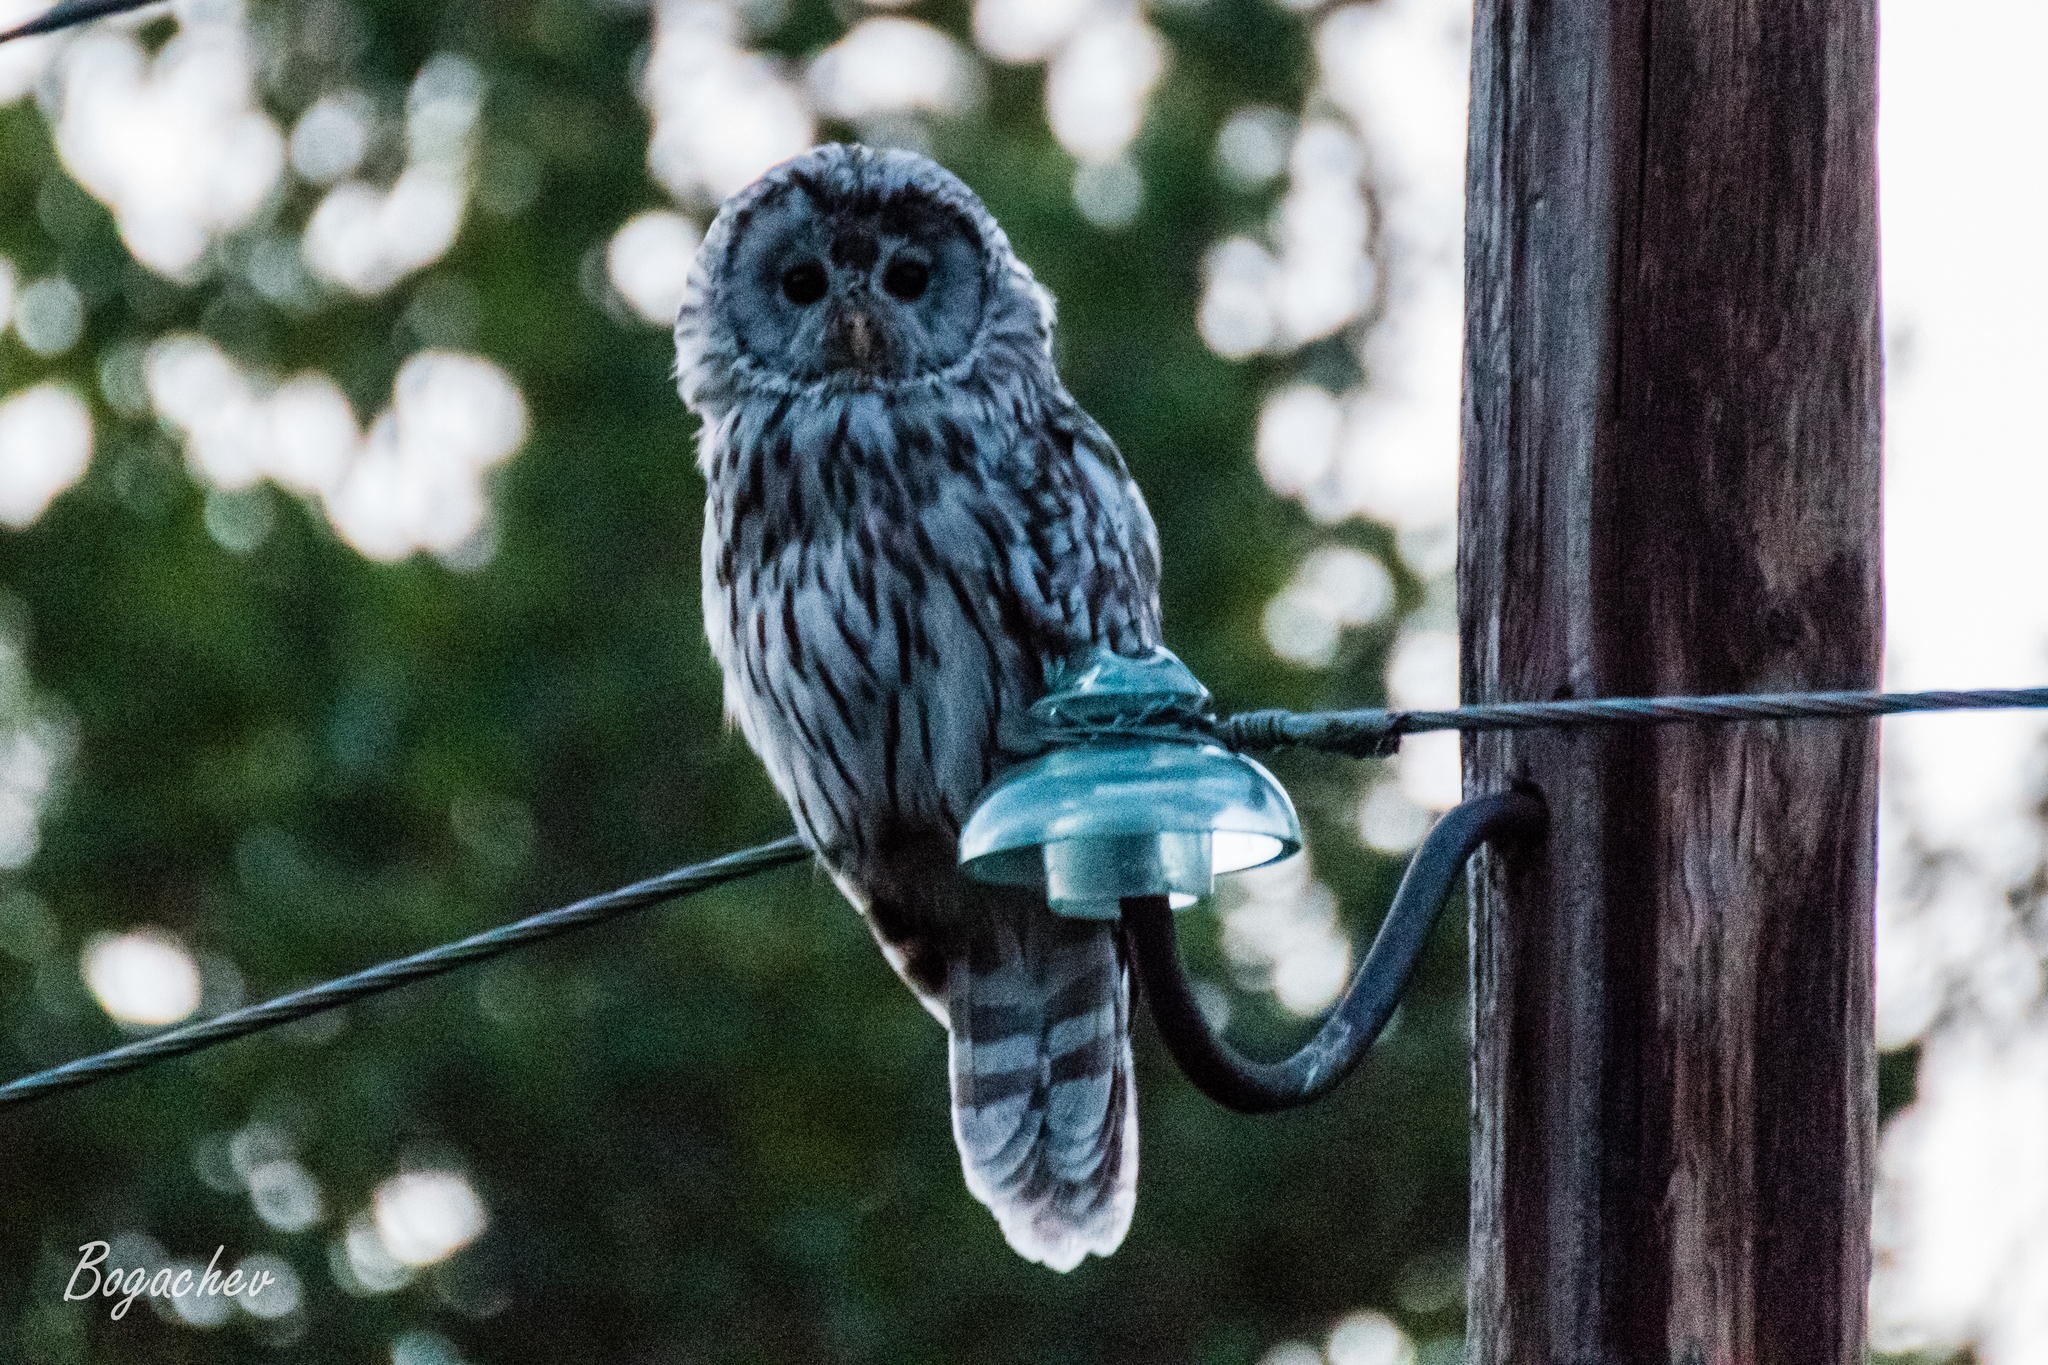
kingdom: Animalia
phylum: Chordata
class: Aves
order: Strigiformes
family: Strigidae
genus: Strix
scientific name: Strix uralensis
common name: Ural owl
